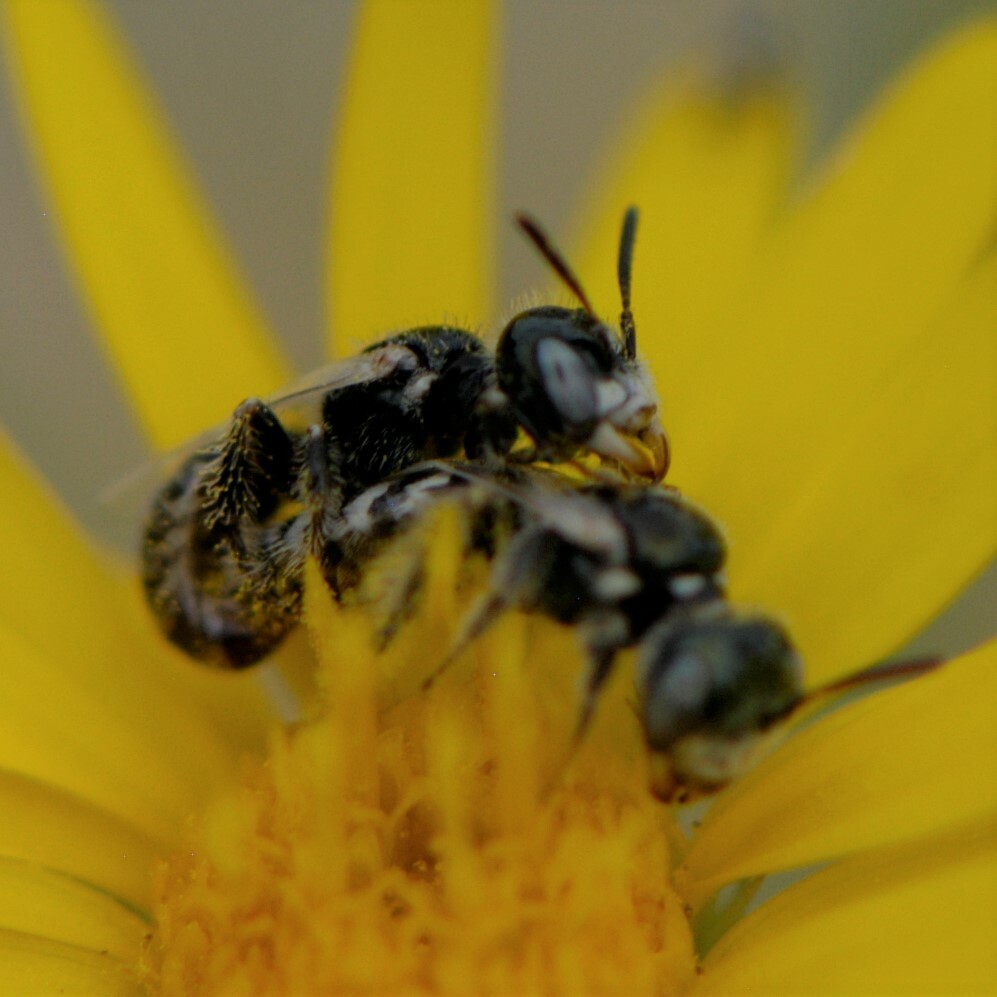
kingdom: Animalia
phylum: Arthropoda
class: Insecta
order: Hymenoptera
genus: Pentaperdita
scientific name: Pentaperdita
